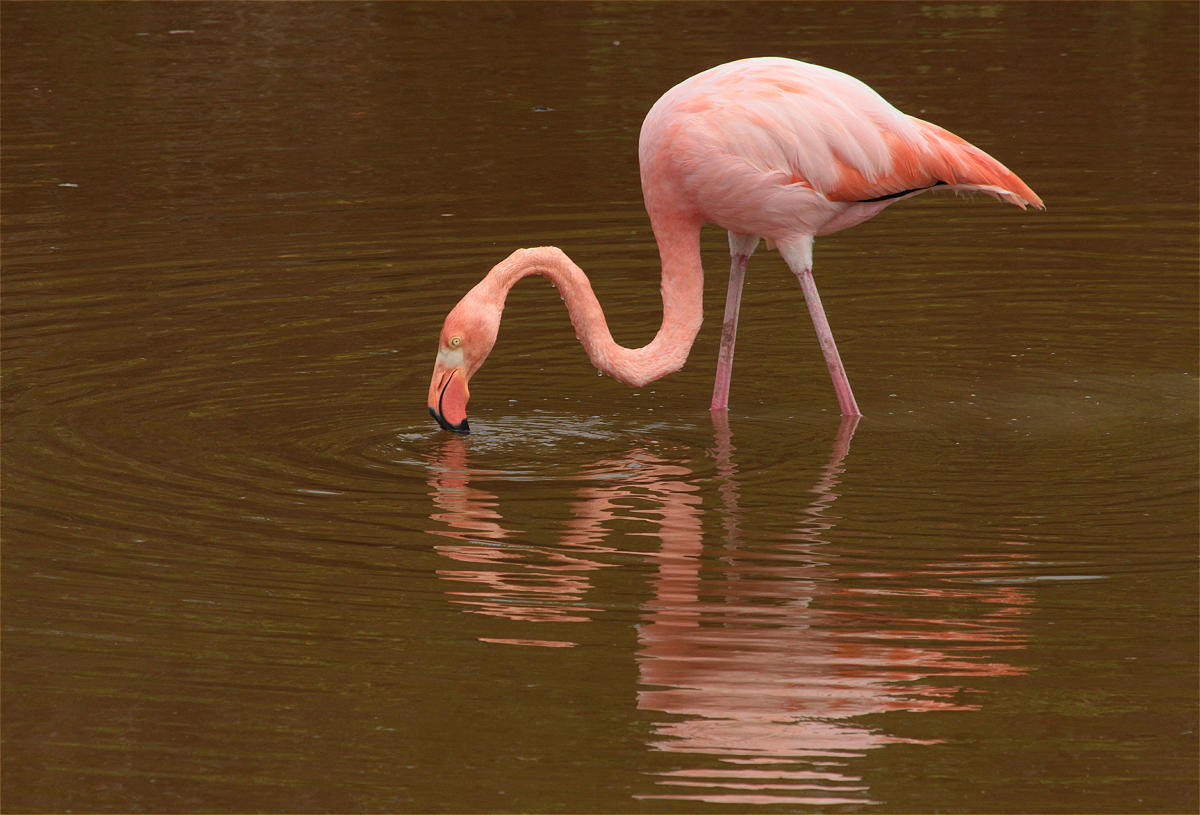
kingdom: Animalia
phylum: Chordata
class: Aves
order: Phoenicopteriformes
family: Phoenicopteridae
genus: Phoenicopterus
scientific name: Phoenicopterus ruber
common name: American flamingo
